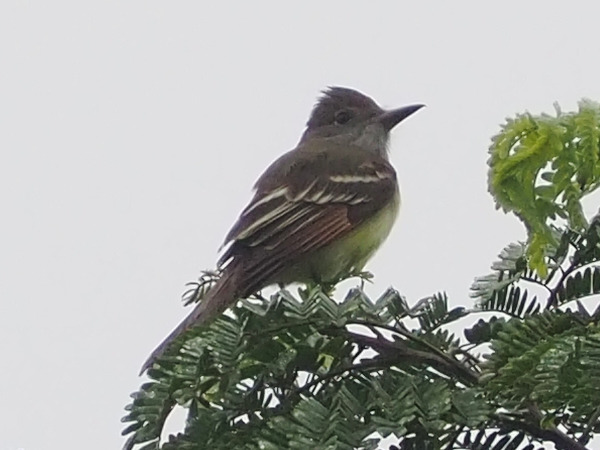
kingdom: Animalia
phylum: Chordata
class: Aves
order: Passeriformes
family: Tyrannidae
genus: Myiarchus
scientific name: Myiarchus crinitus
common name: Great crested flycatcher
